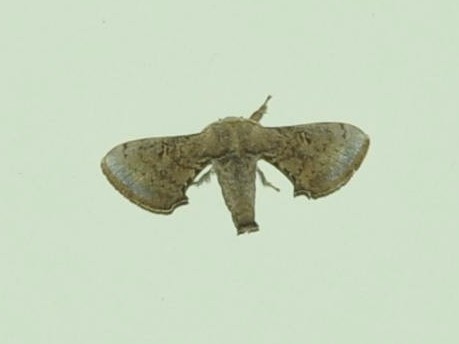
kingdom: Animalia
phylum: Arthropoda
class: Insecta
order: Lepidoptera
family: Bombycidae
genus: Trilocha
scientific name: Trilocha varians
